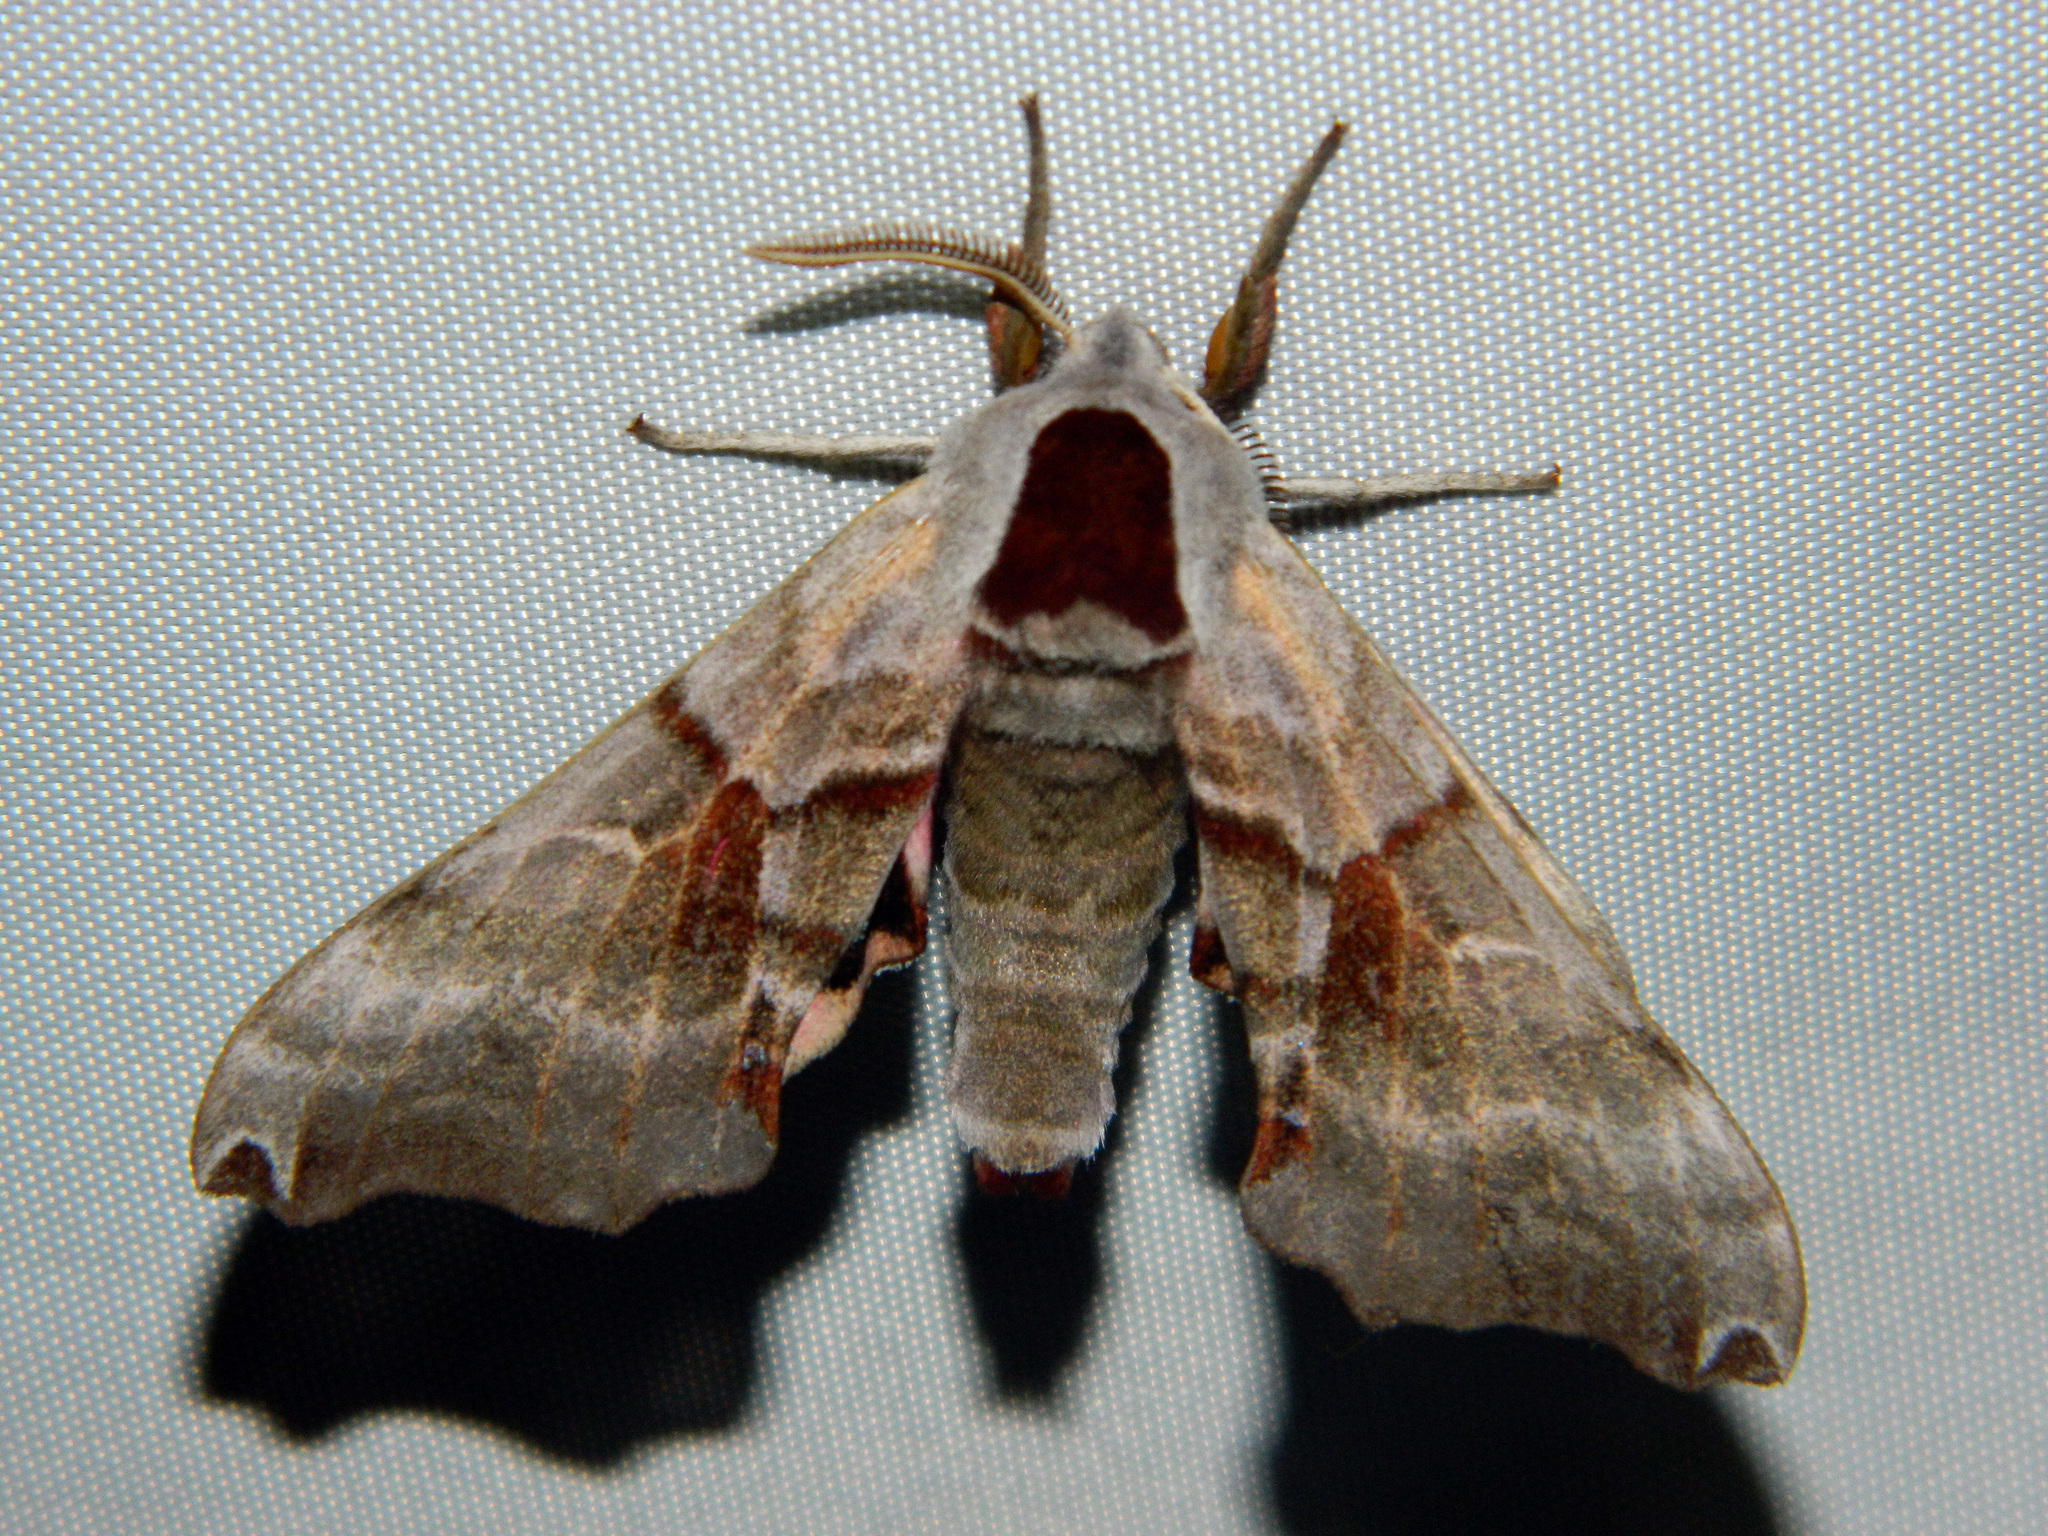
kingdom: Animalia
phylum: Arthropoda
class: Insecta
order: Lepidoptera
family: Sphingidae
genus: Smerinthus
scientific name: Smerinthus jamaicensis
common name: Twin spotted sphinx
